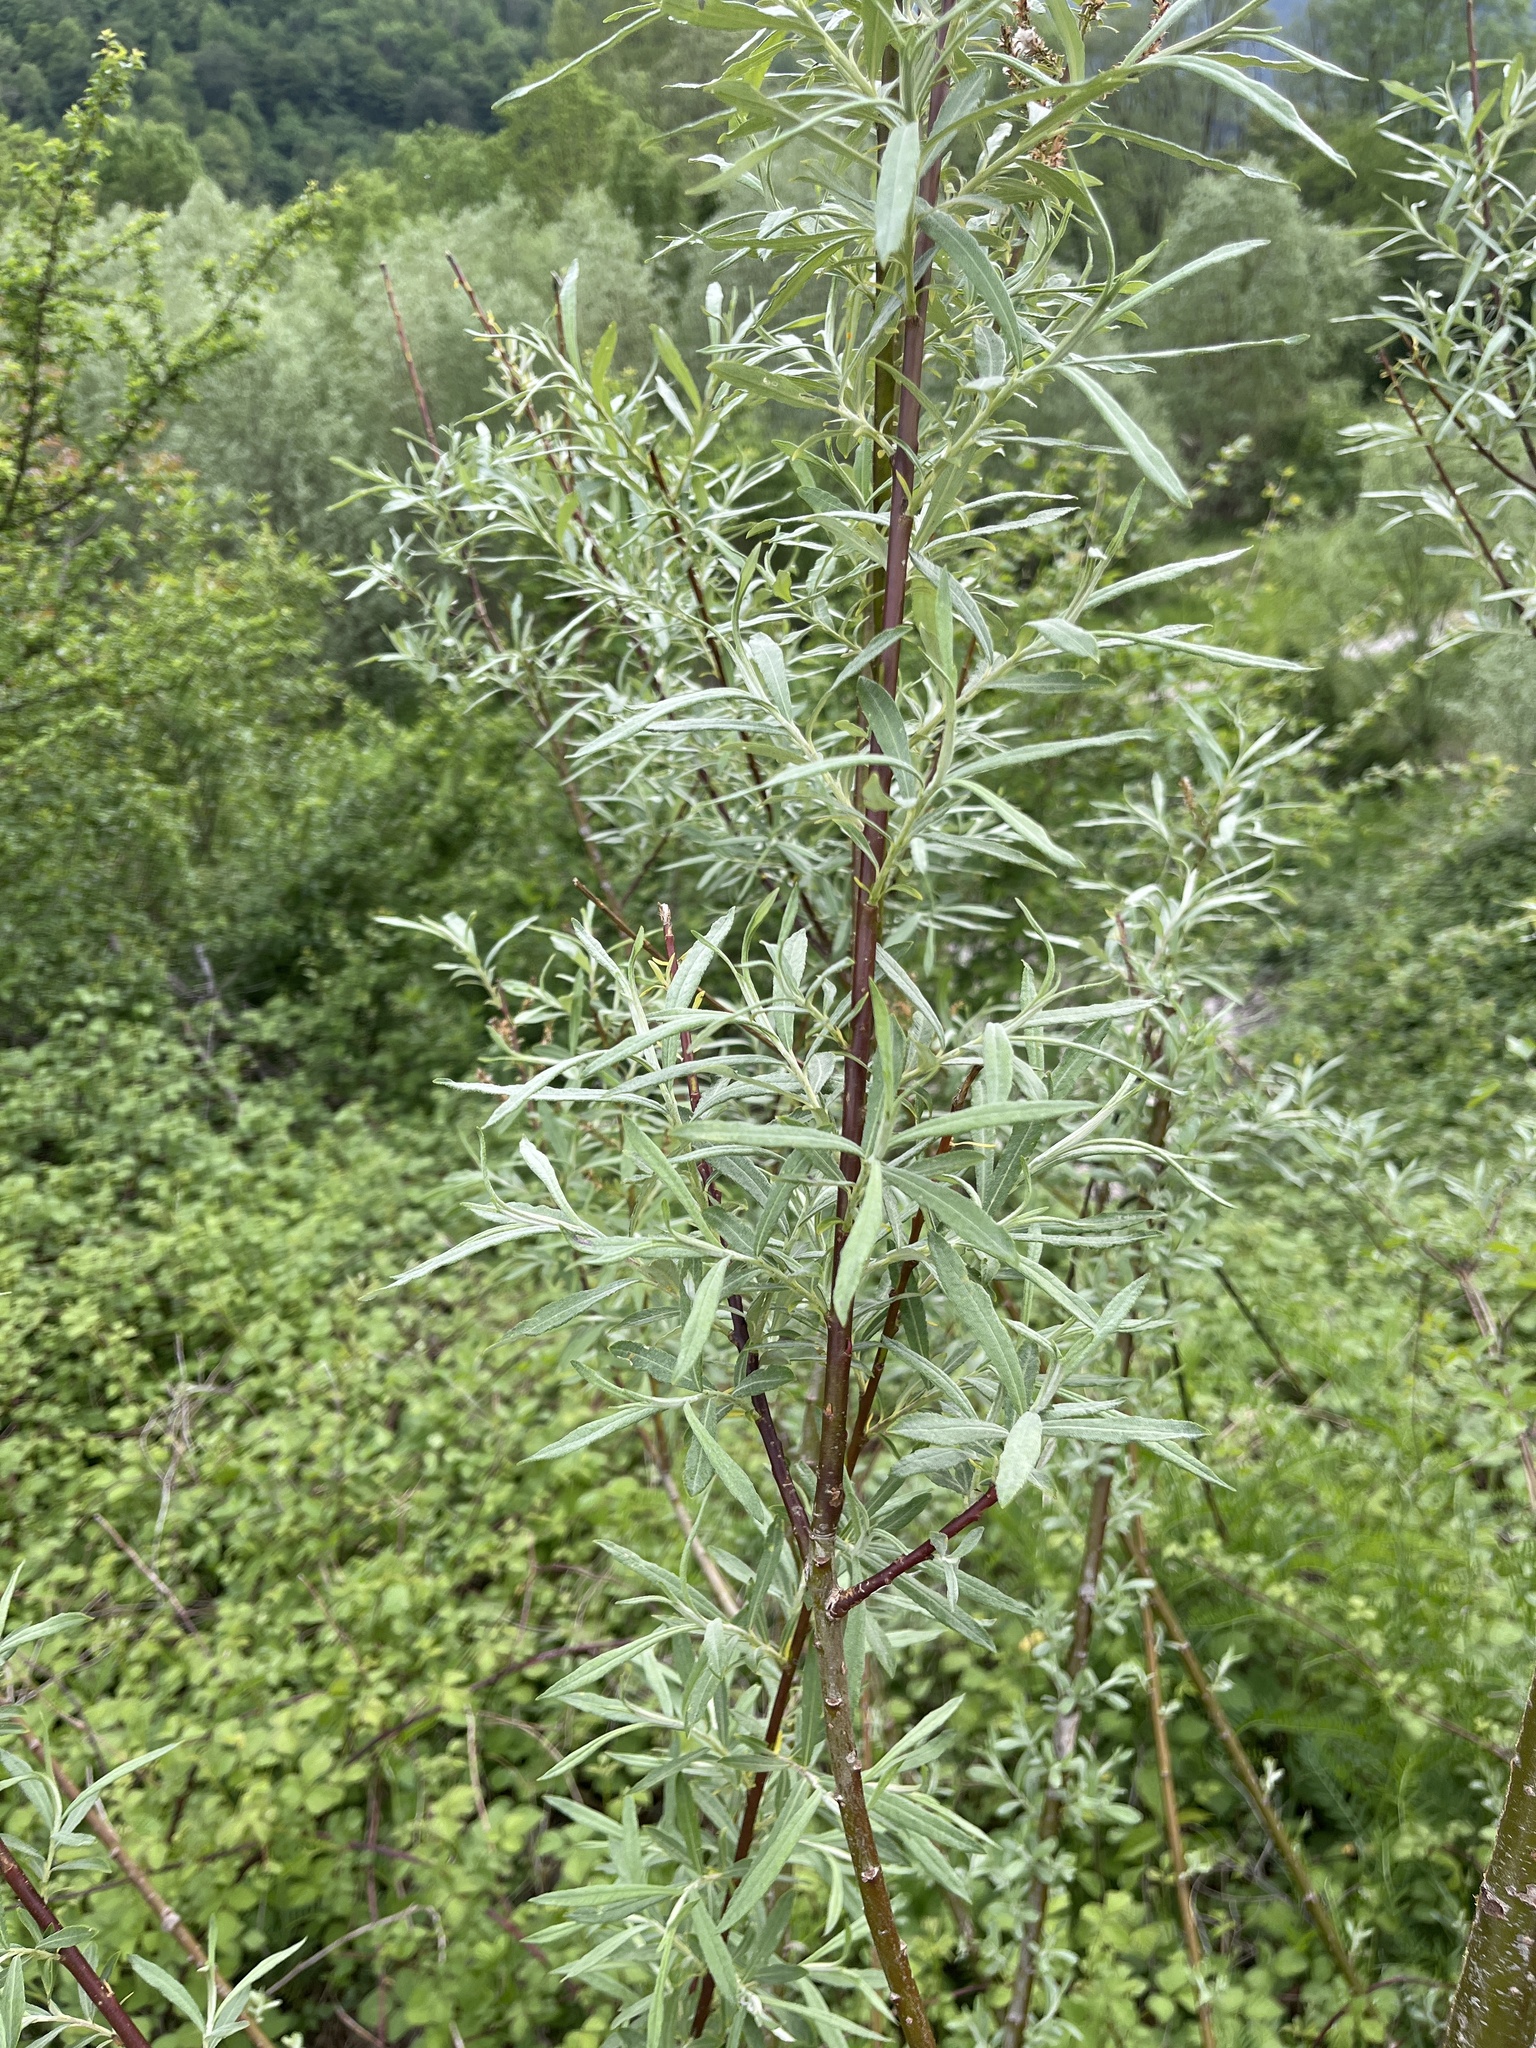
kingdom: Plantae
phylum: Tracheophyta
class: Magnoliopsida
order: Malpighiales
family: Salicaceae
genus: Salix
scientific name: Salix eleagnos
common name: Elaeagnus willow
